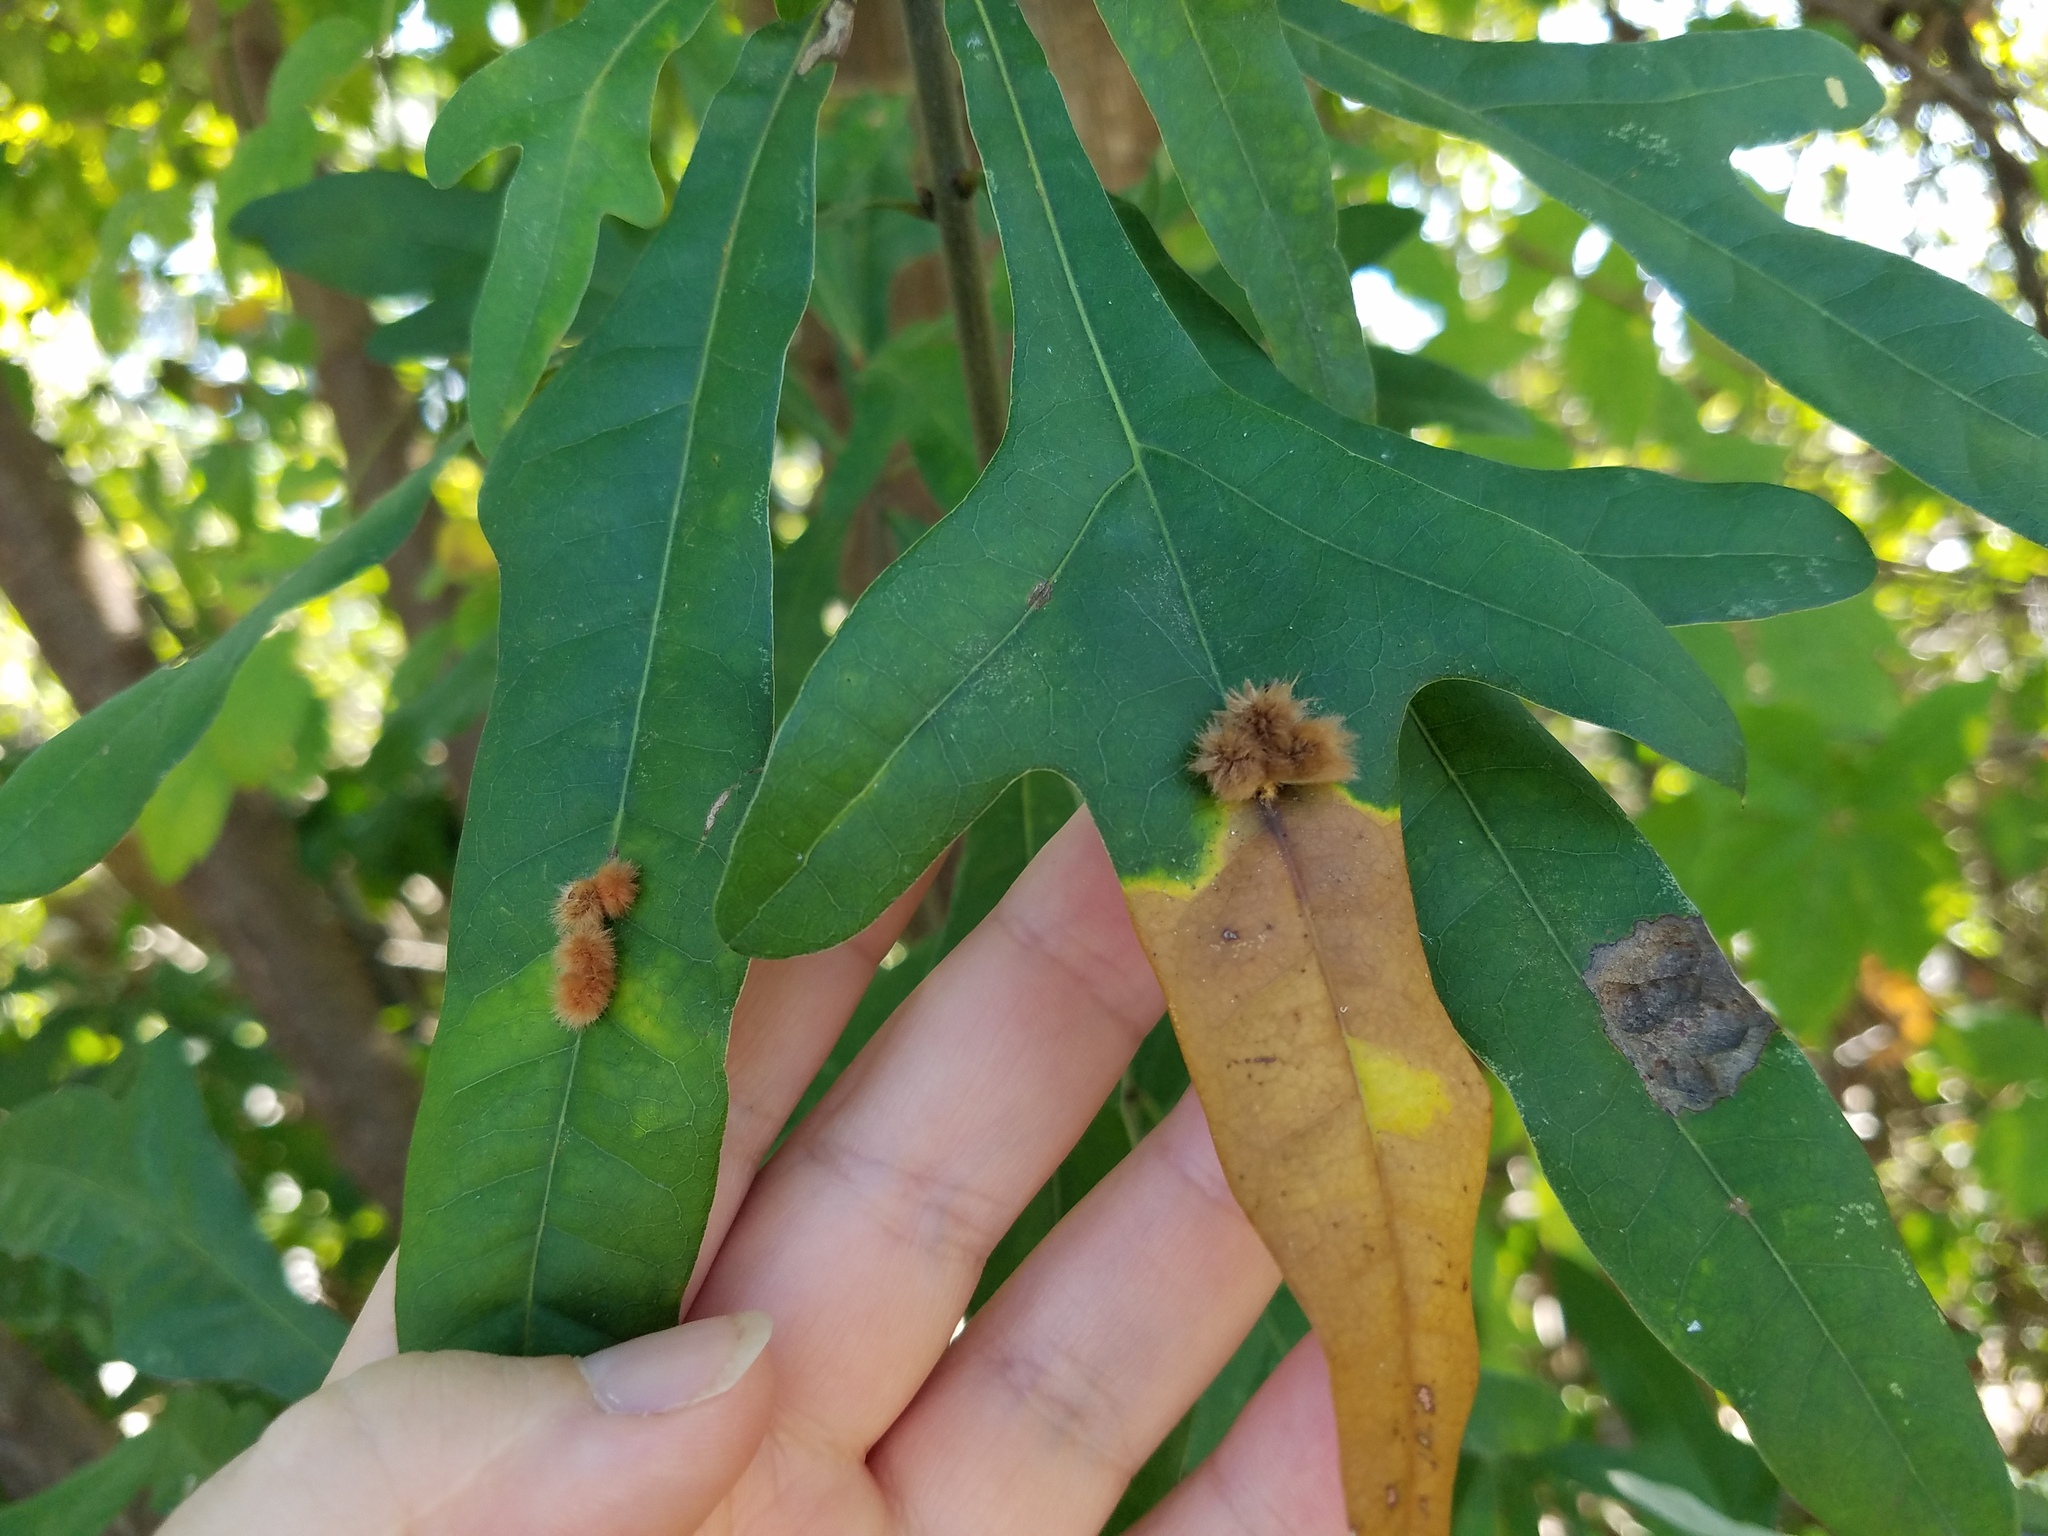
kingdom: Animalia
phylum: Arthropoda
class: Insecta
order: Hymenoptera
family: Cynipidae
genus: Callirhytis
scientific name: Callirhytis
